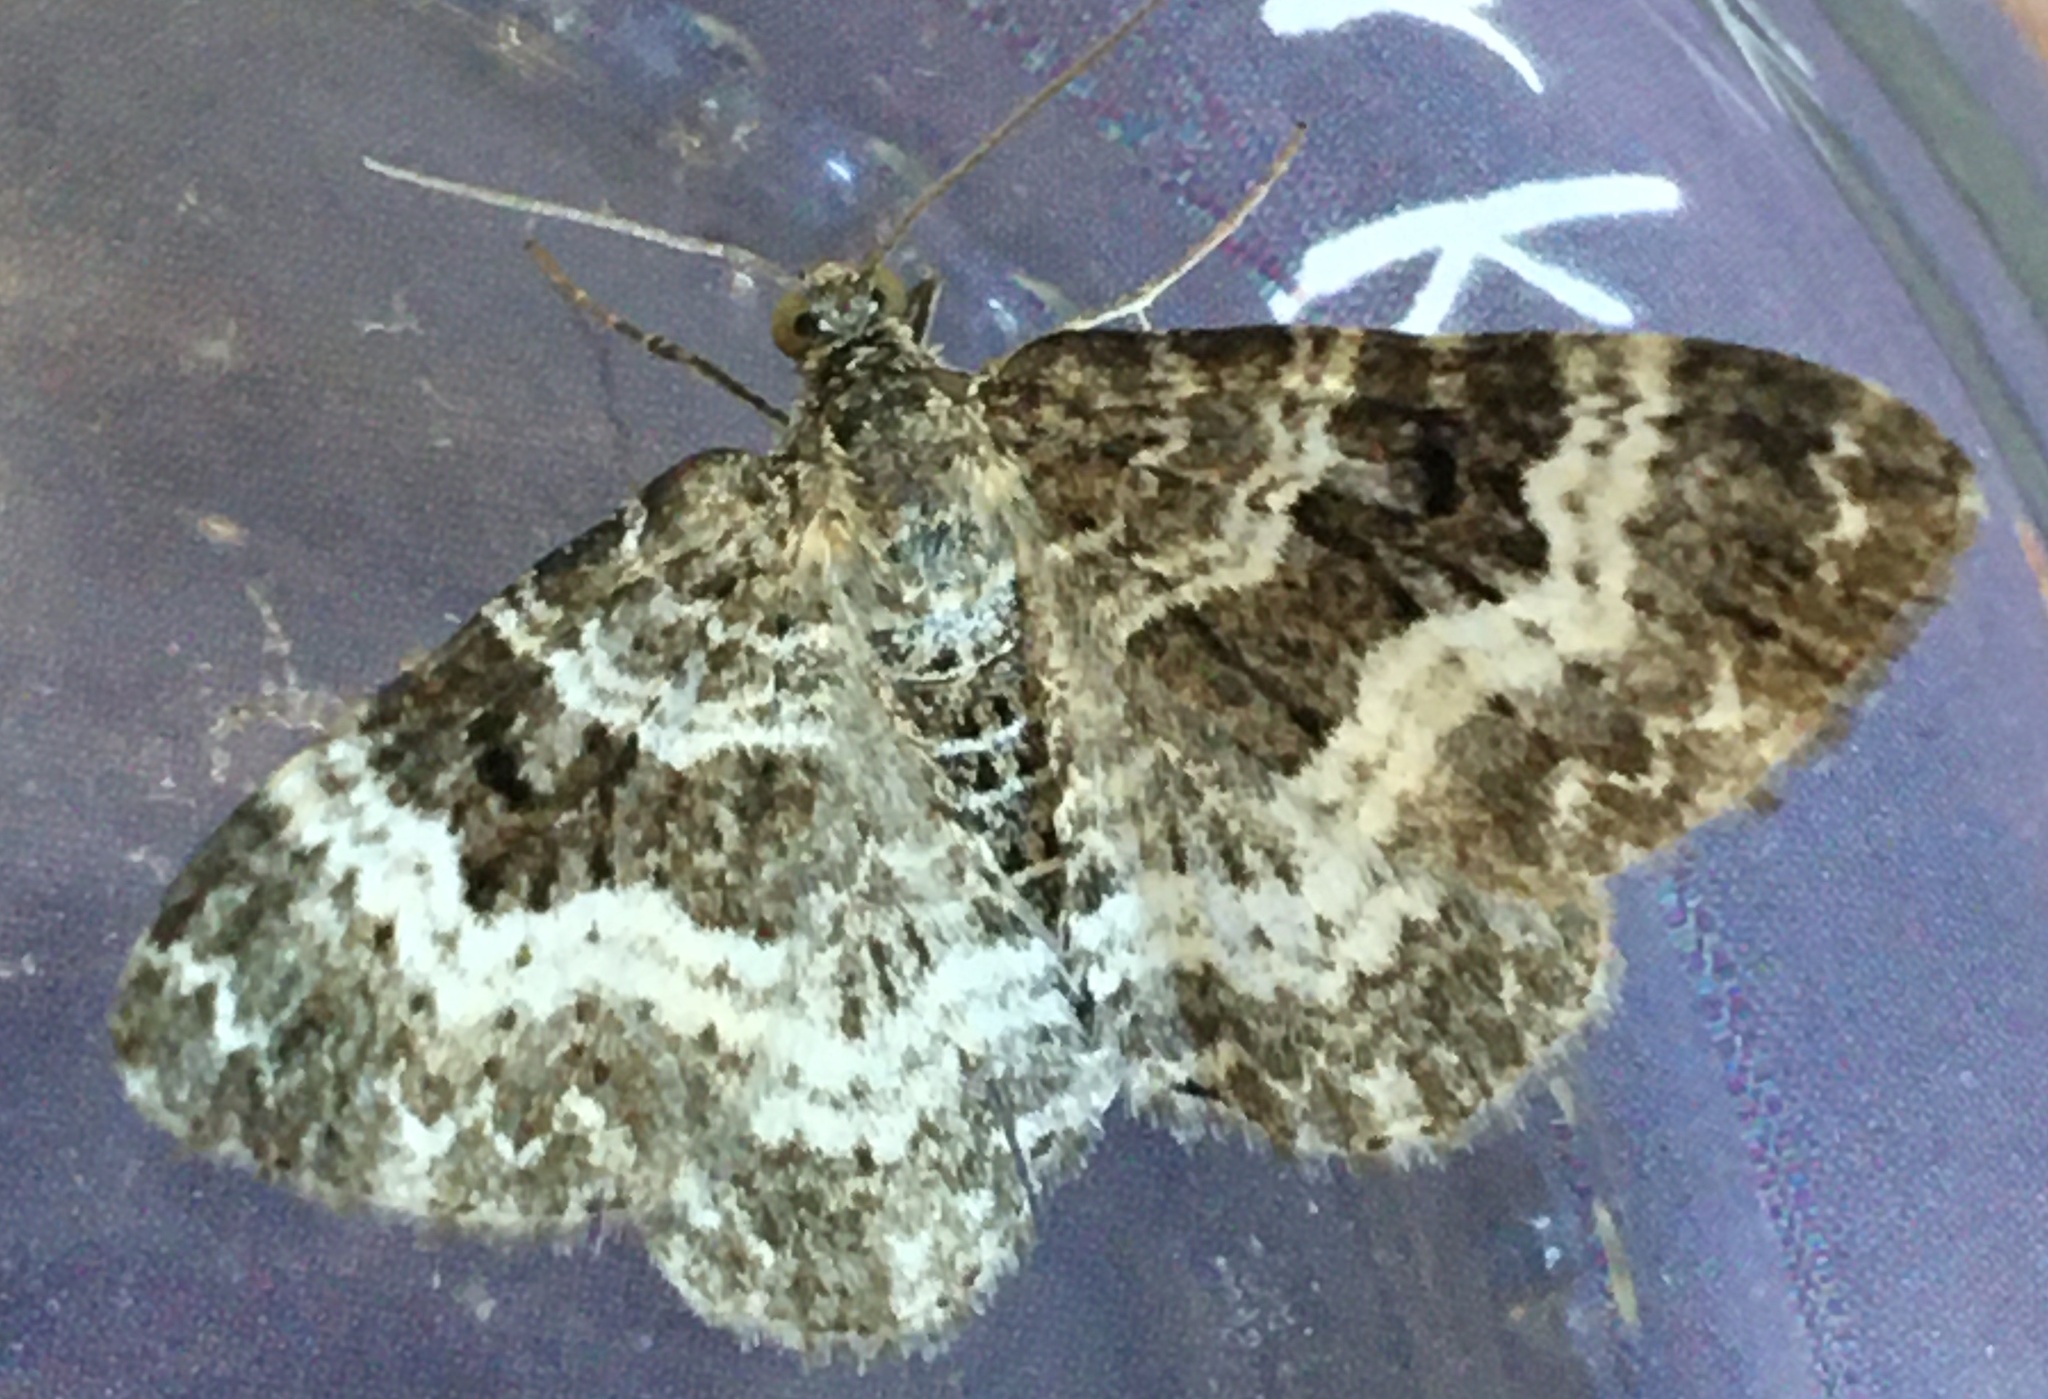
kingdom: Animalia
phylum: Arthropoda
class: Insecta
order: Lepidoptera
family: Geometridae
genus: Epirrhoe
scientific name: Epirrhoe alternata
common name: Common carpet
